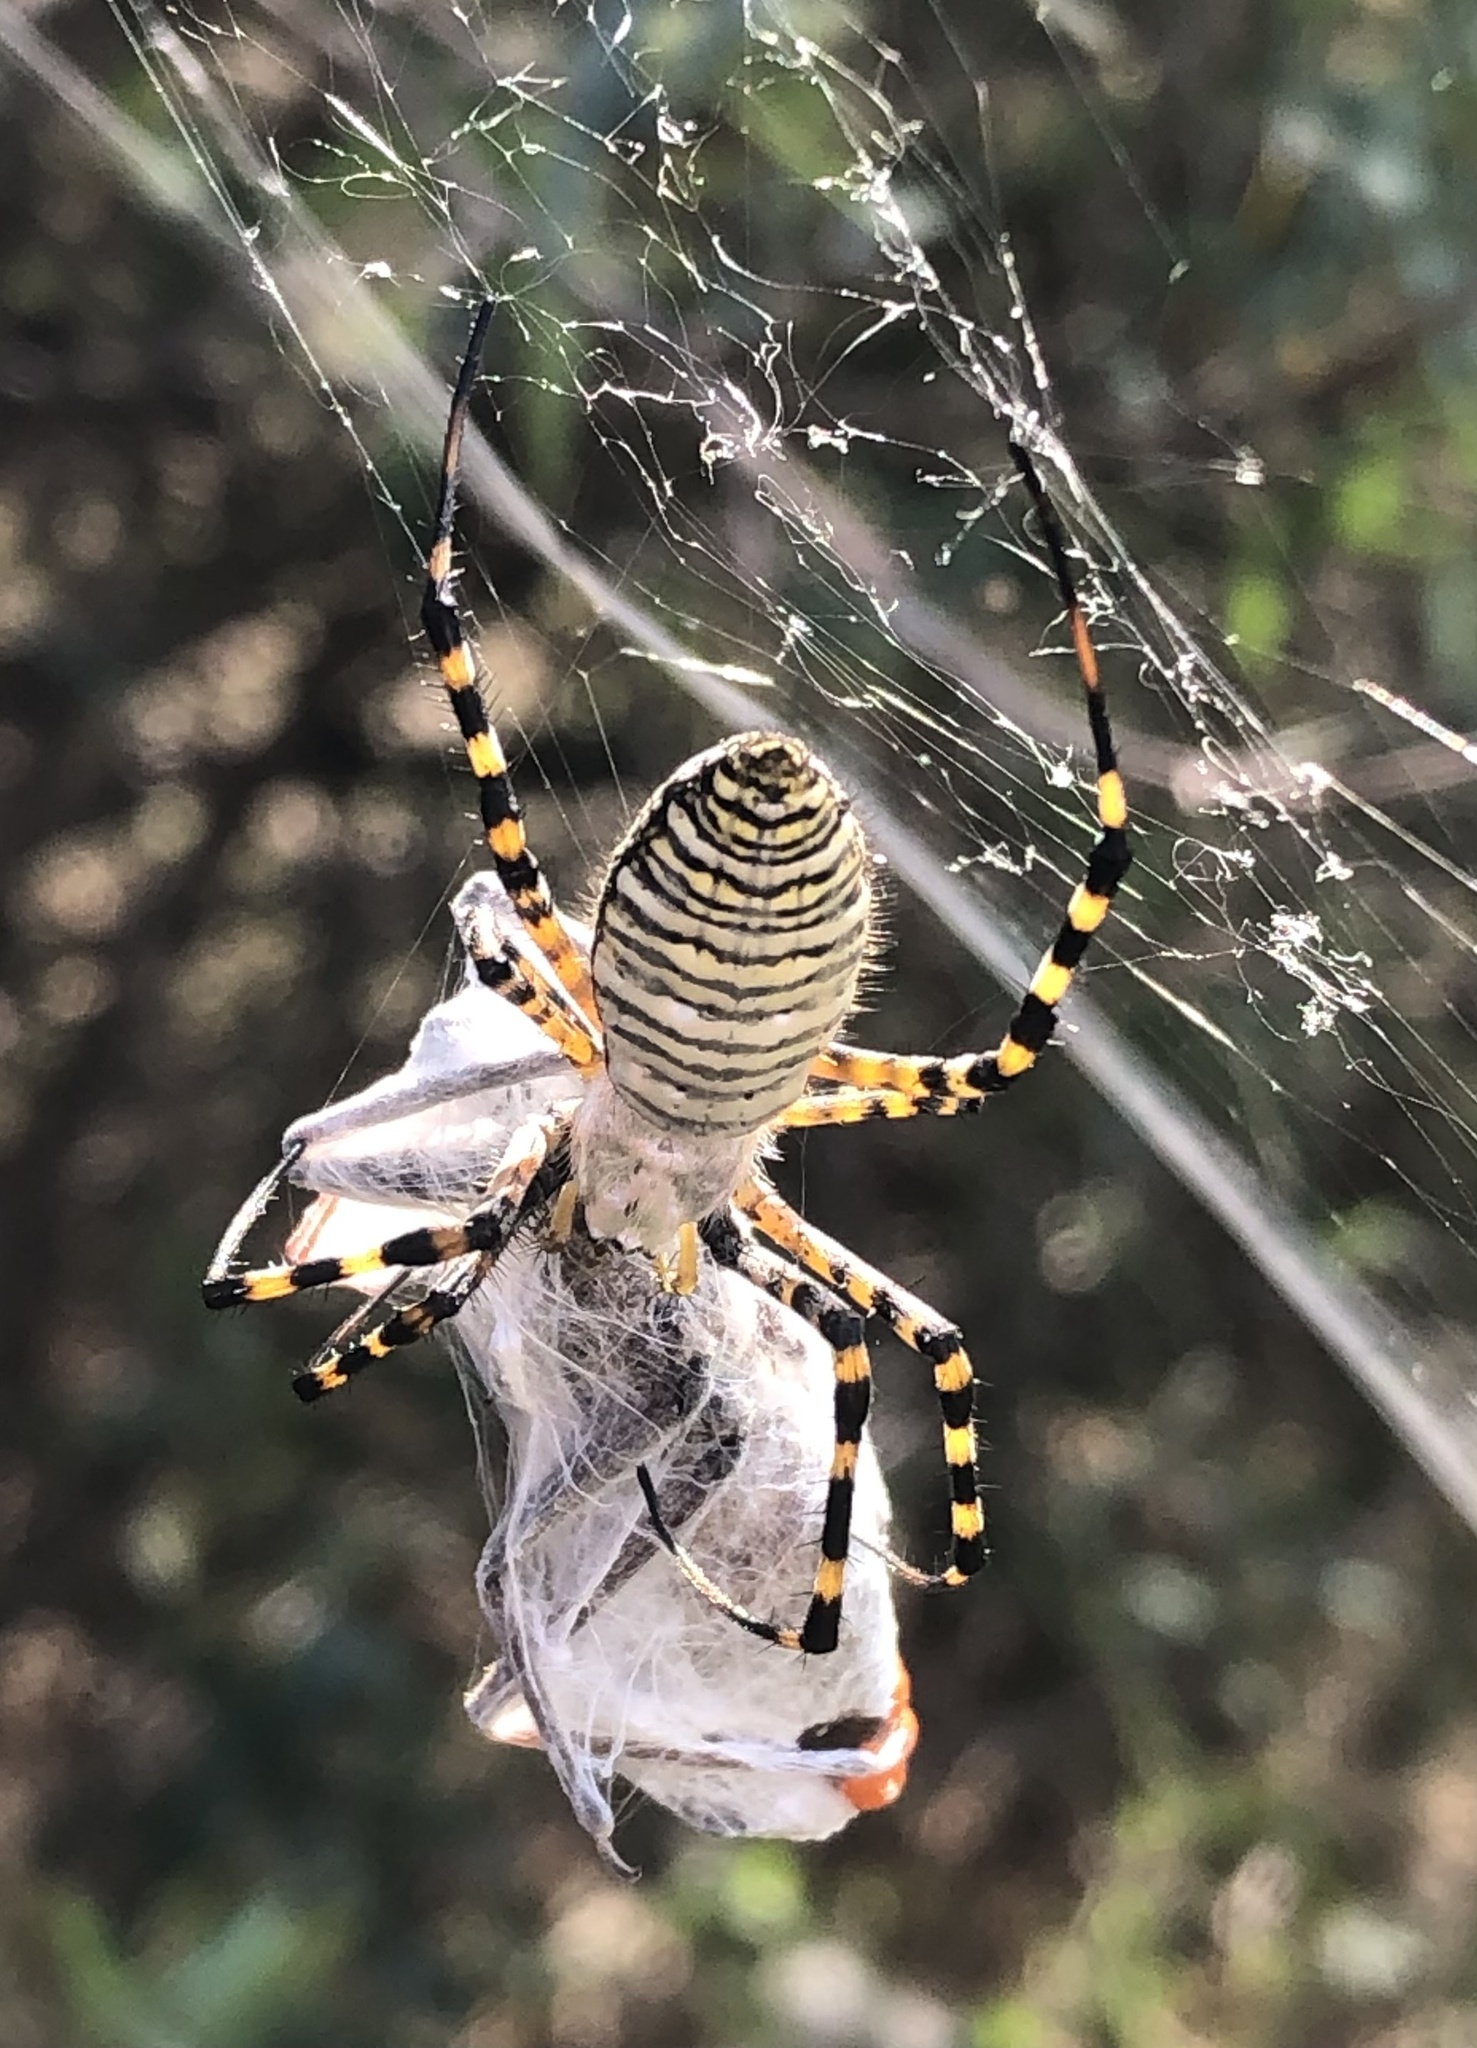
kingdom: Animalia
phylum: Arthropoda
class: Arachnida
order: Araneae
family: Araneidae
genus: Argiope
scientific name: Argiope trifasciata
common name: Banded garden spider
